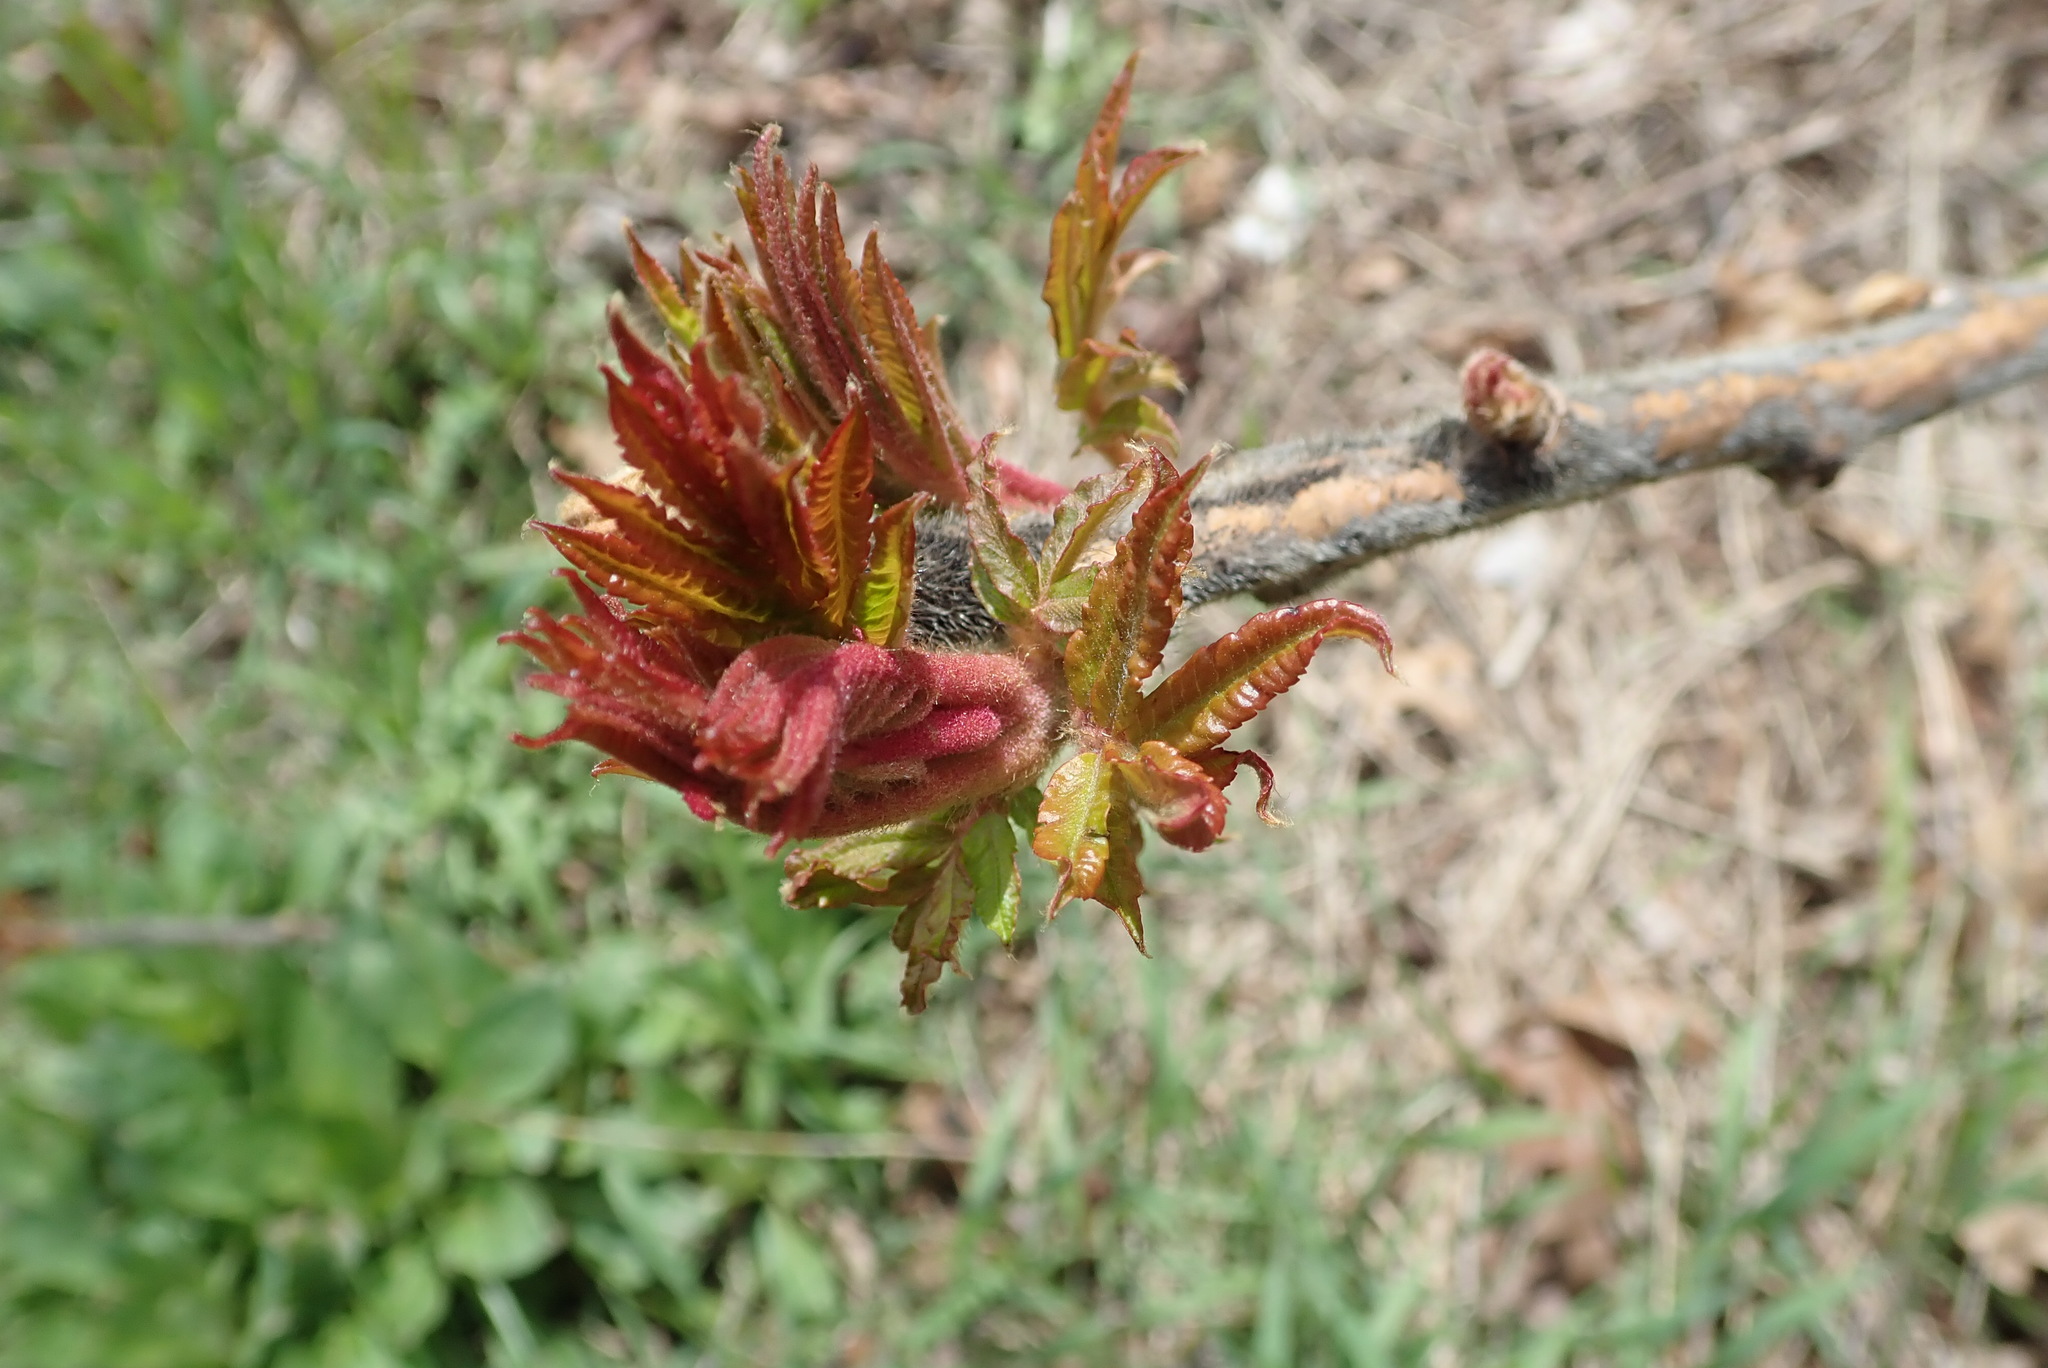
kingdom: Plantae
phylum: Tracheophyta
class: Magnoliopsida
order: Sapindales
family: Anacardiaceae
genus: Rhus
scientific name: Rhus typhina
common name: Staghorn sumac
